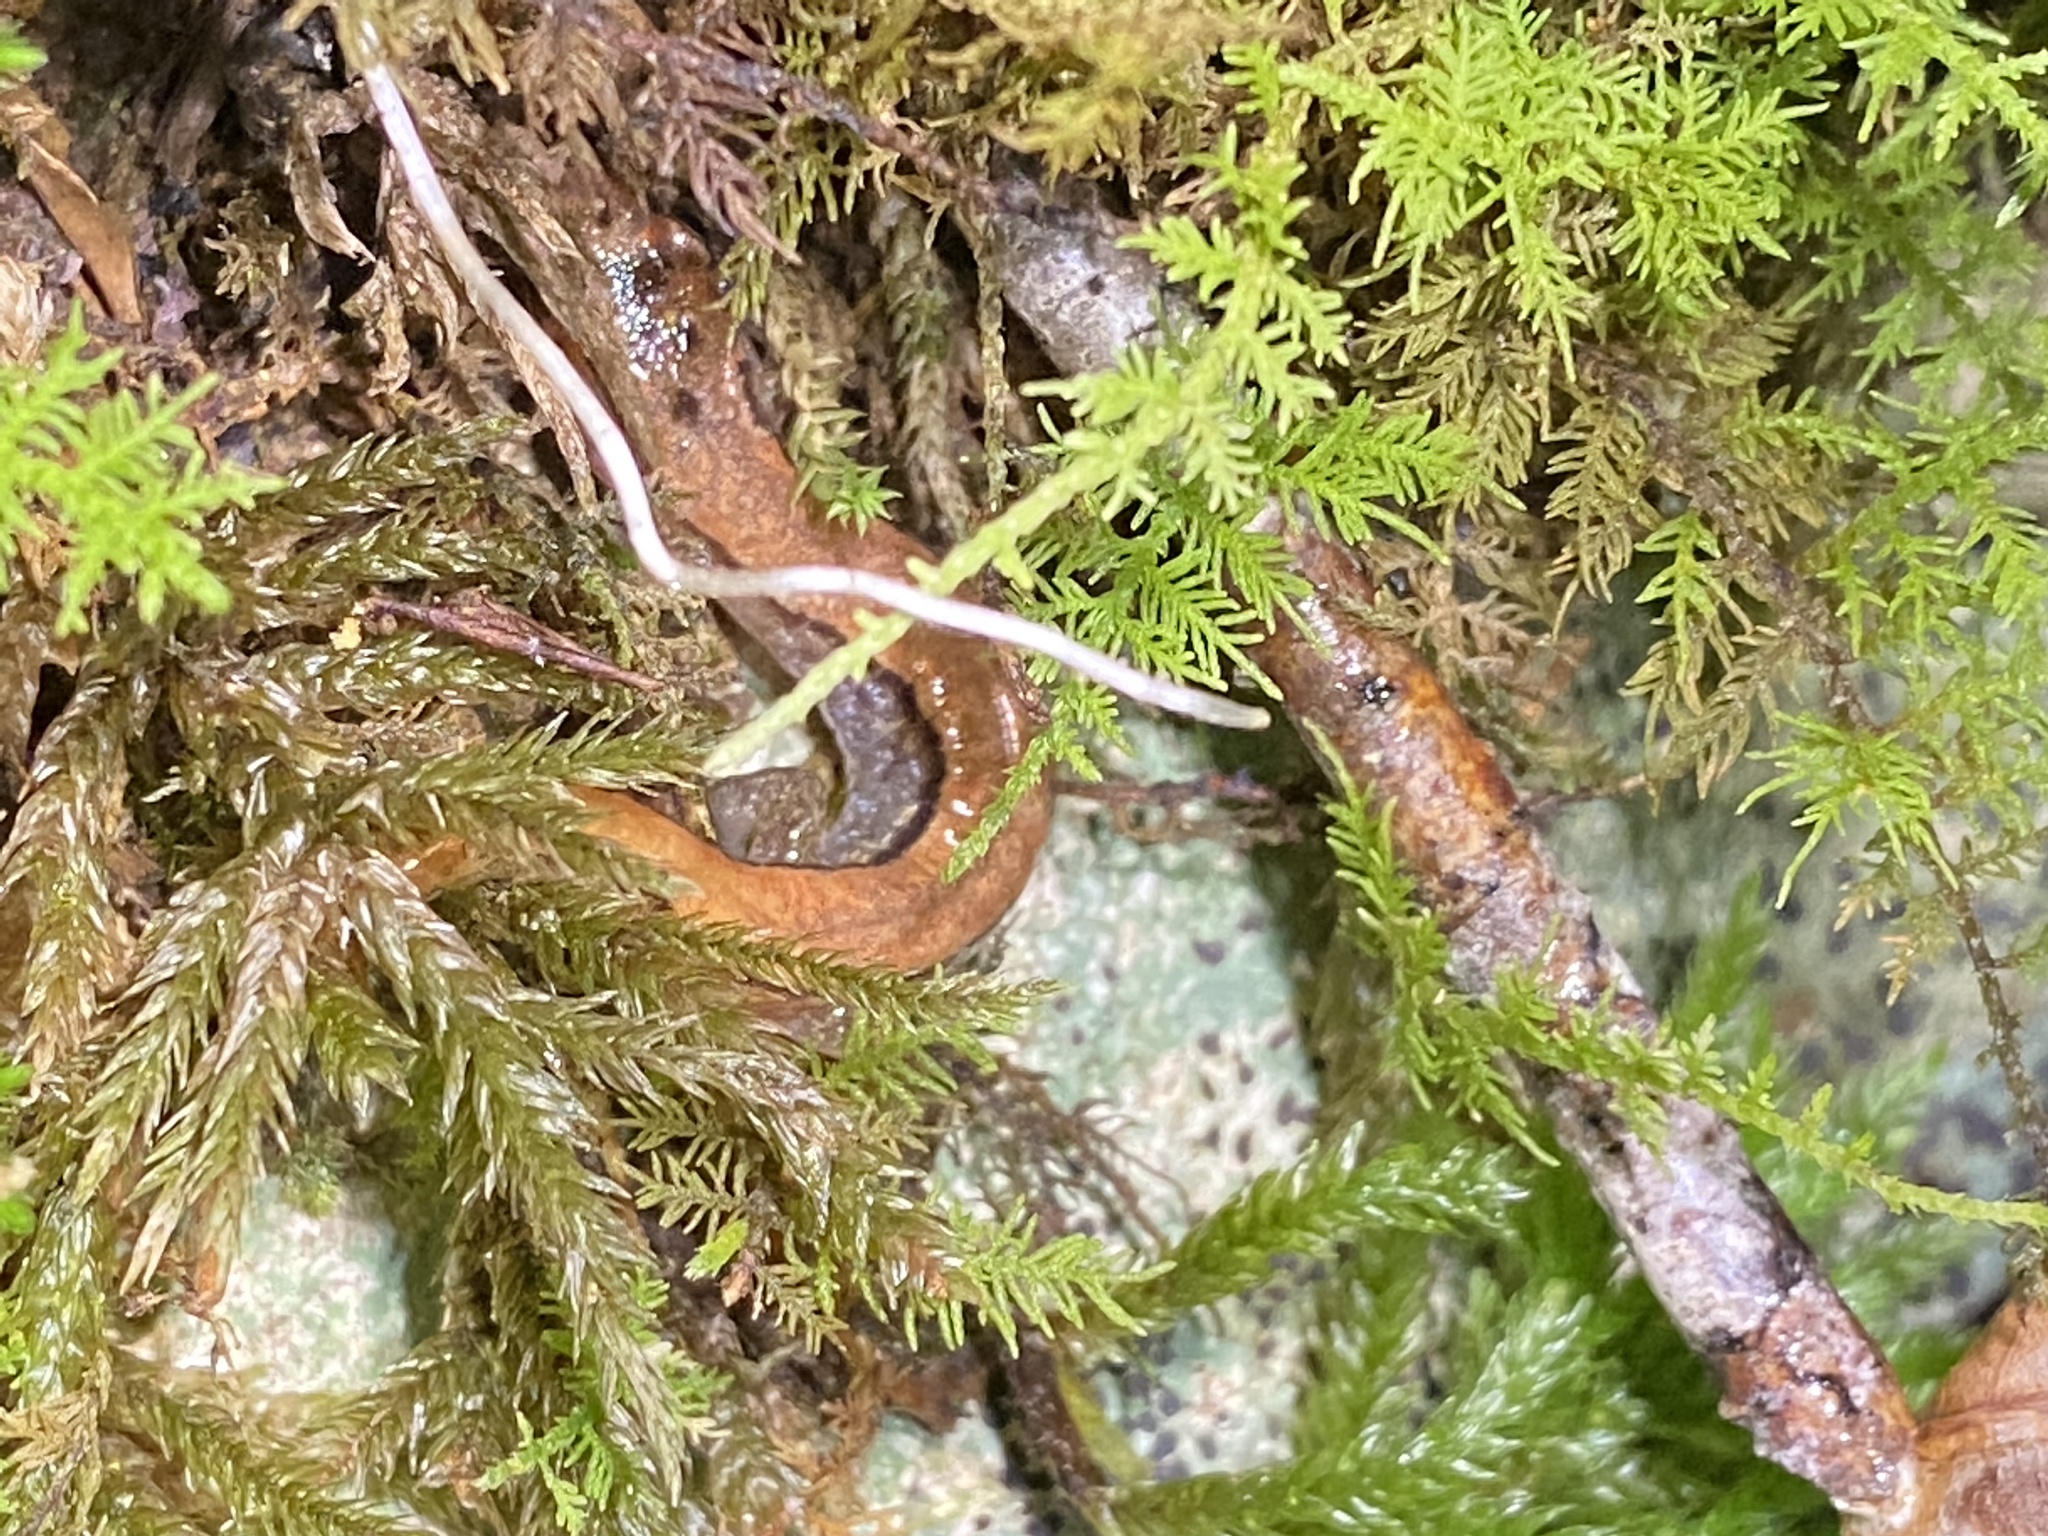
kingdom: Animalia
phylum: Chordata
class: Amphibia
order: Caudata
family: Plethodontidae
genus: Desmognathus
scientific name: Desmognathus orestes
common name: Blue ridge dusky salamander
